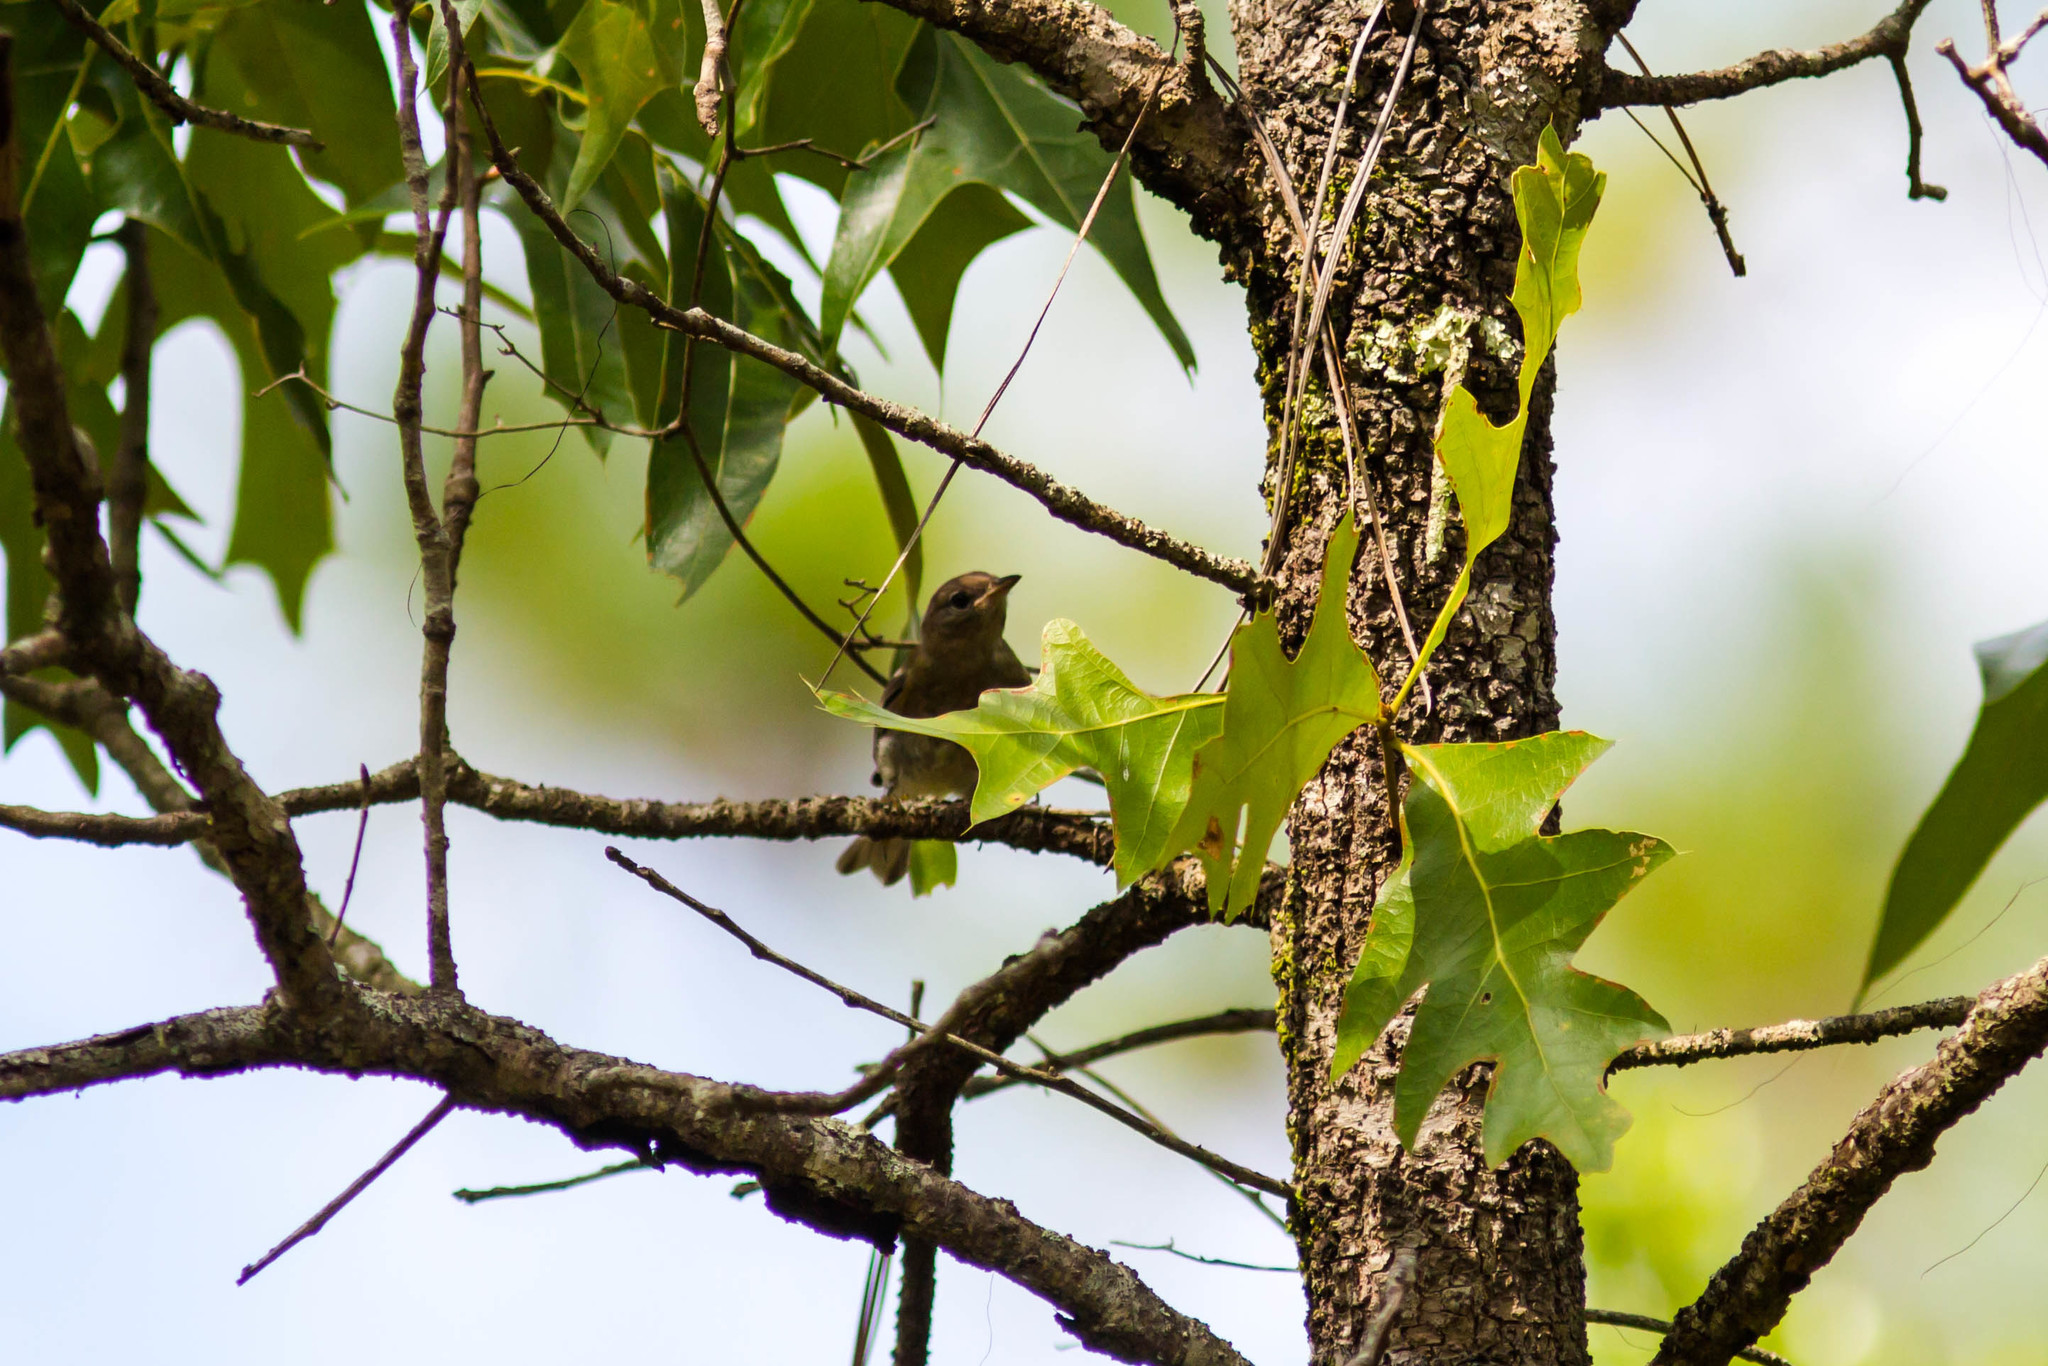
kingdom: Animalia
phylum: Chordata
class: Aves
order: Passeriformes
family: Parulidae
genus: Setophaga
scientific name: Setophaga pinus
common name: Pine warbler
